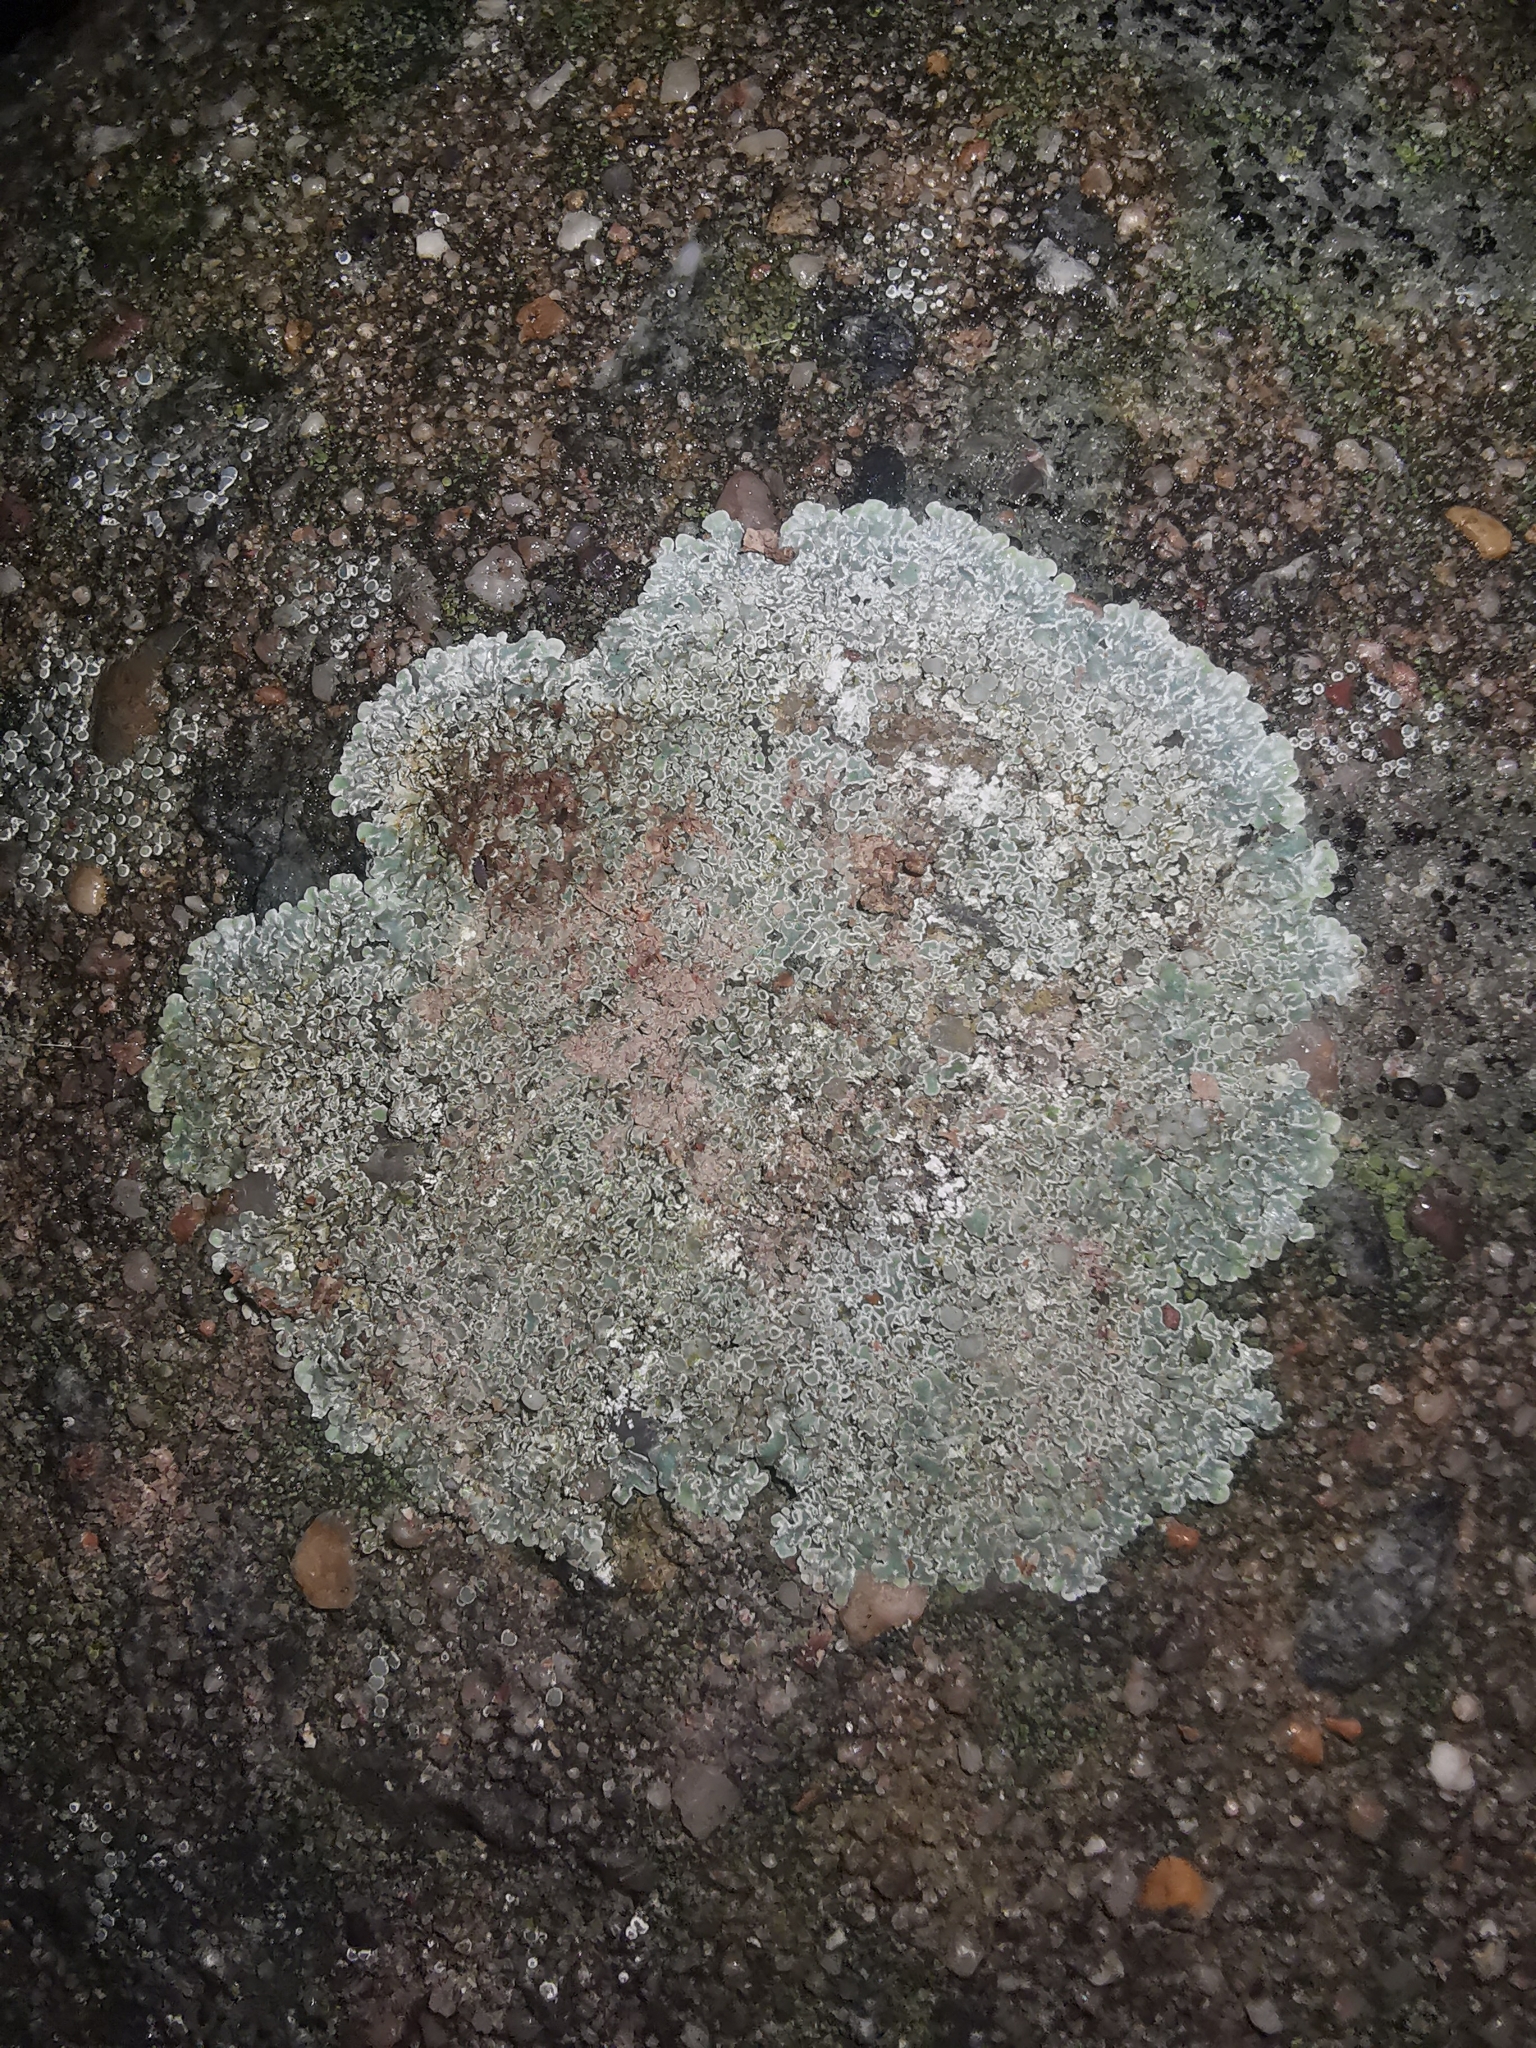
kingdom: Fungi
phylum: Ascomycota
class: Lecanoromycetes
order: Lecanorales
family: Lecanoraceae
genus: Protoparmeliopsis
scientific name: Protoparmeliopsis muralis
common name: Stonewall rim lichen
